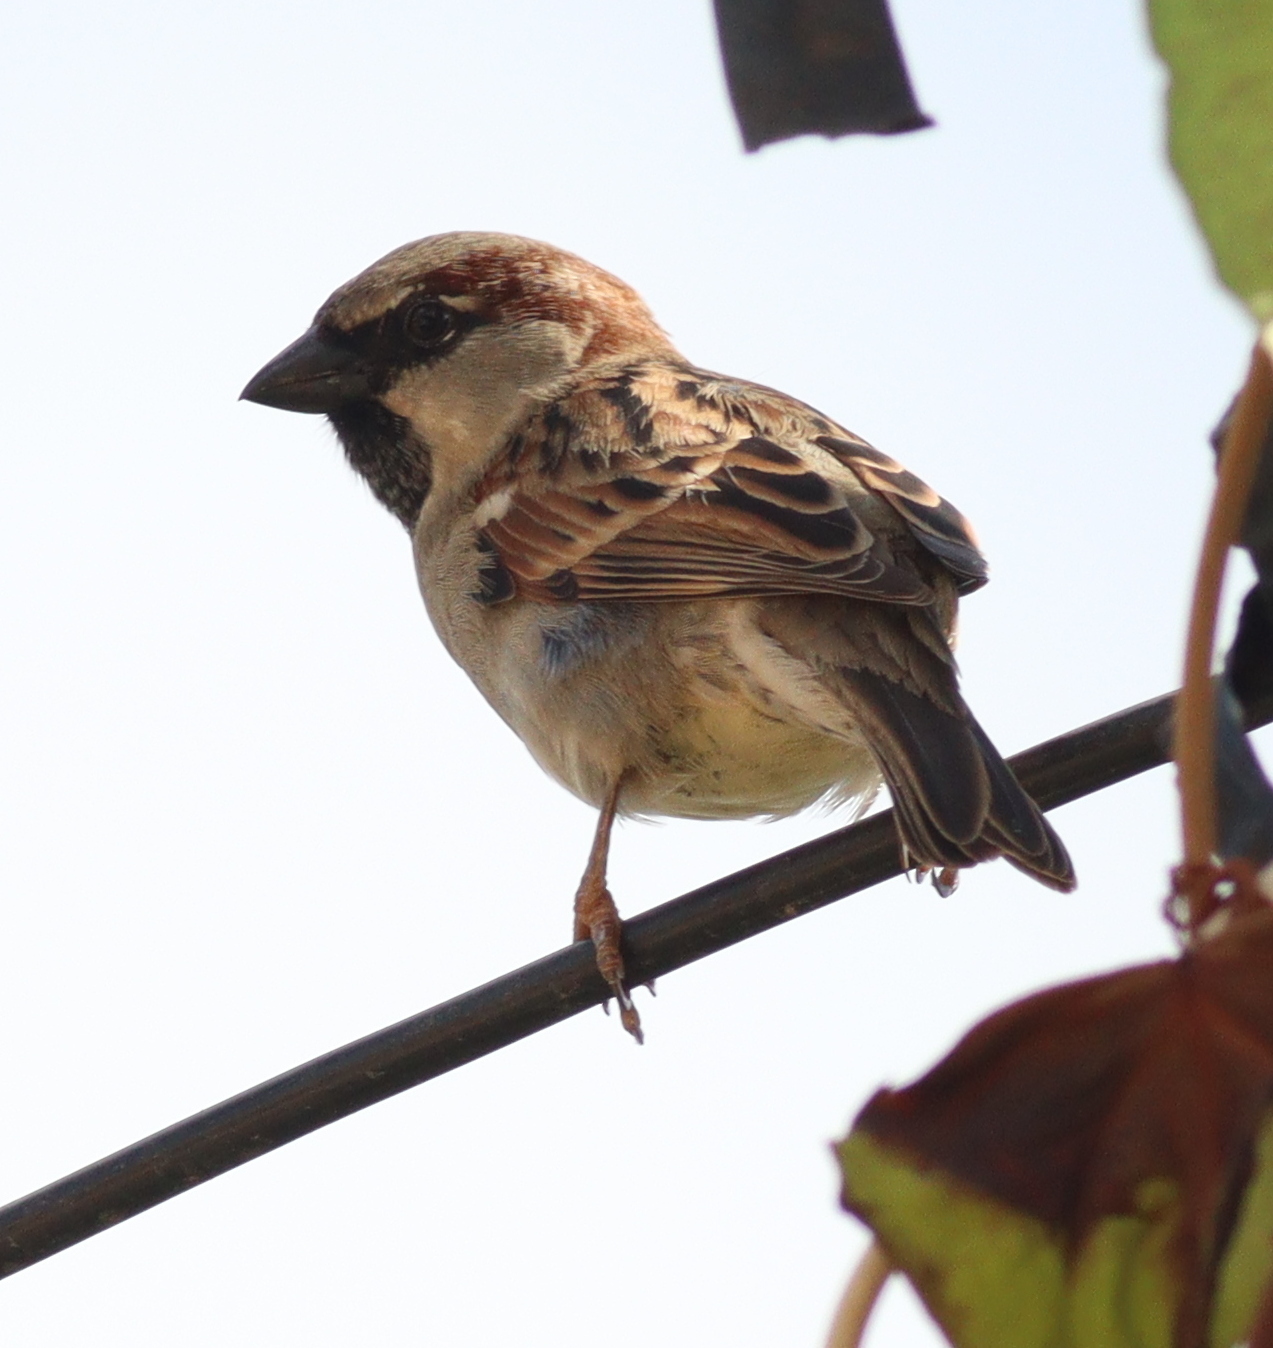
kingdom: Animalia
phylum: Chordata
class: Aves
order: Passeriformes
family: Passeridae
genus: Passer
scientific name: Passer domesticus
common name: House sparrow
